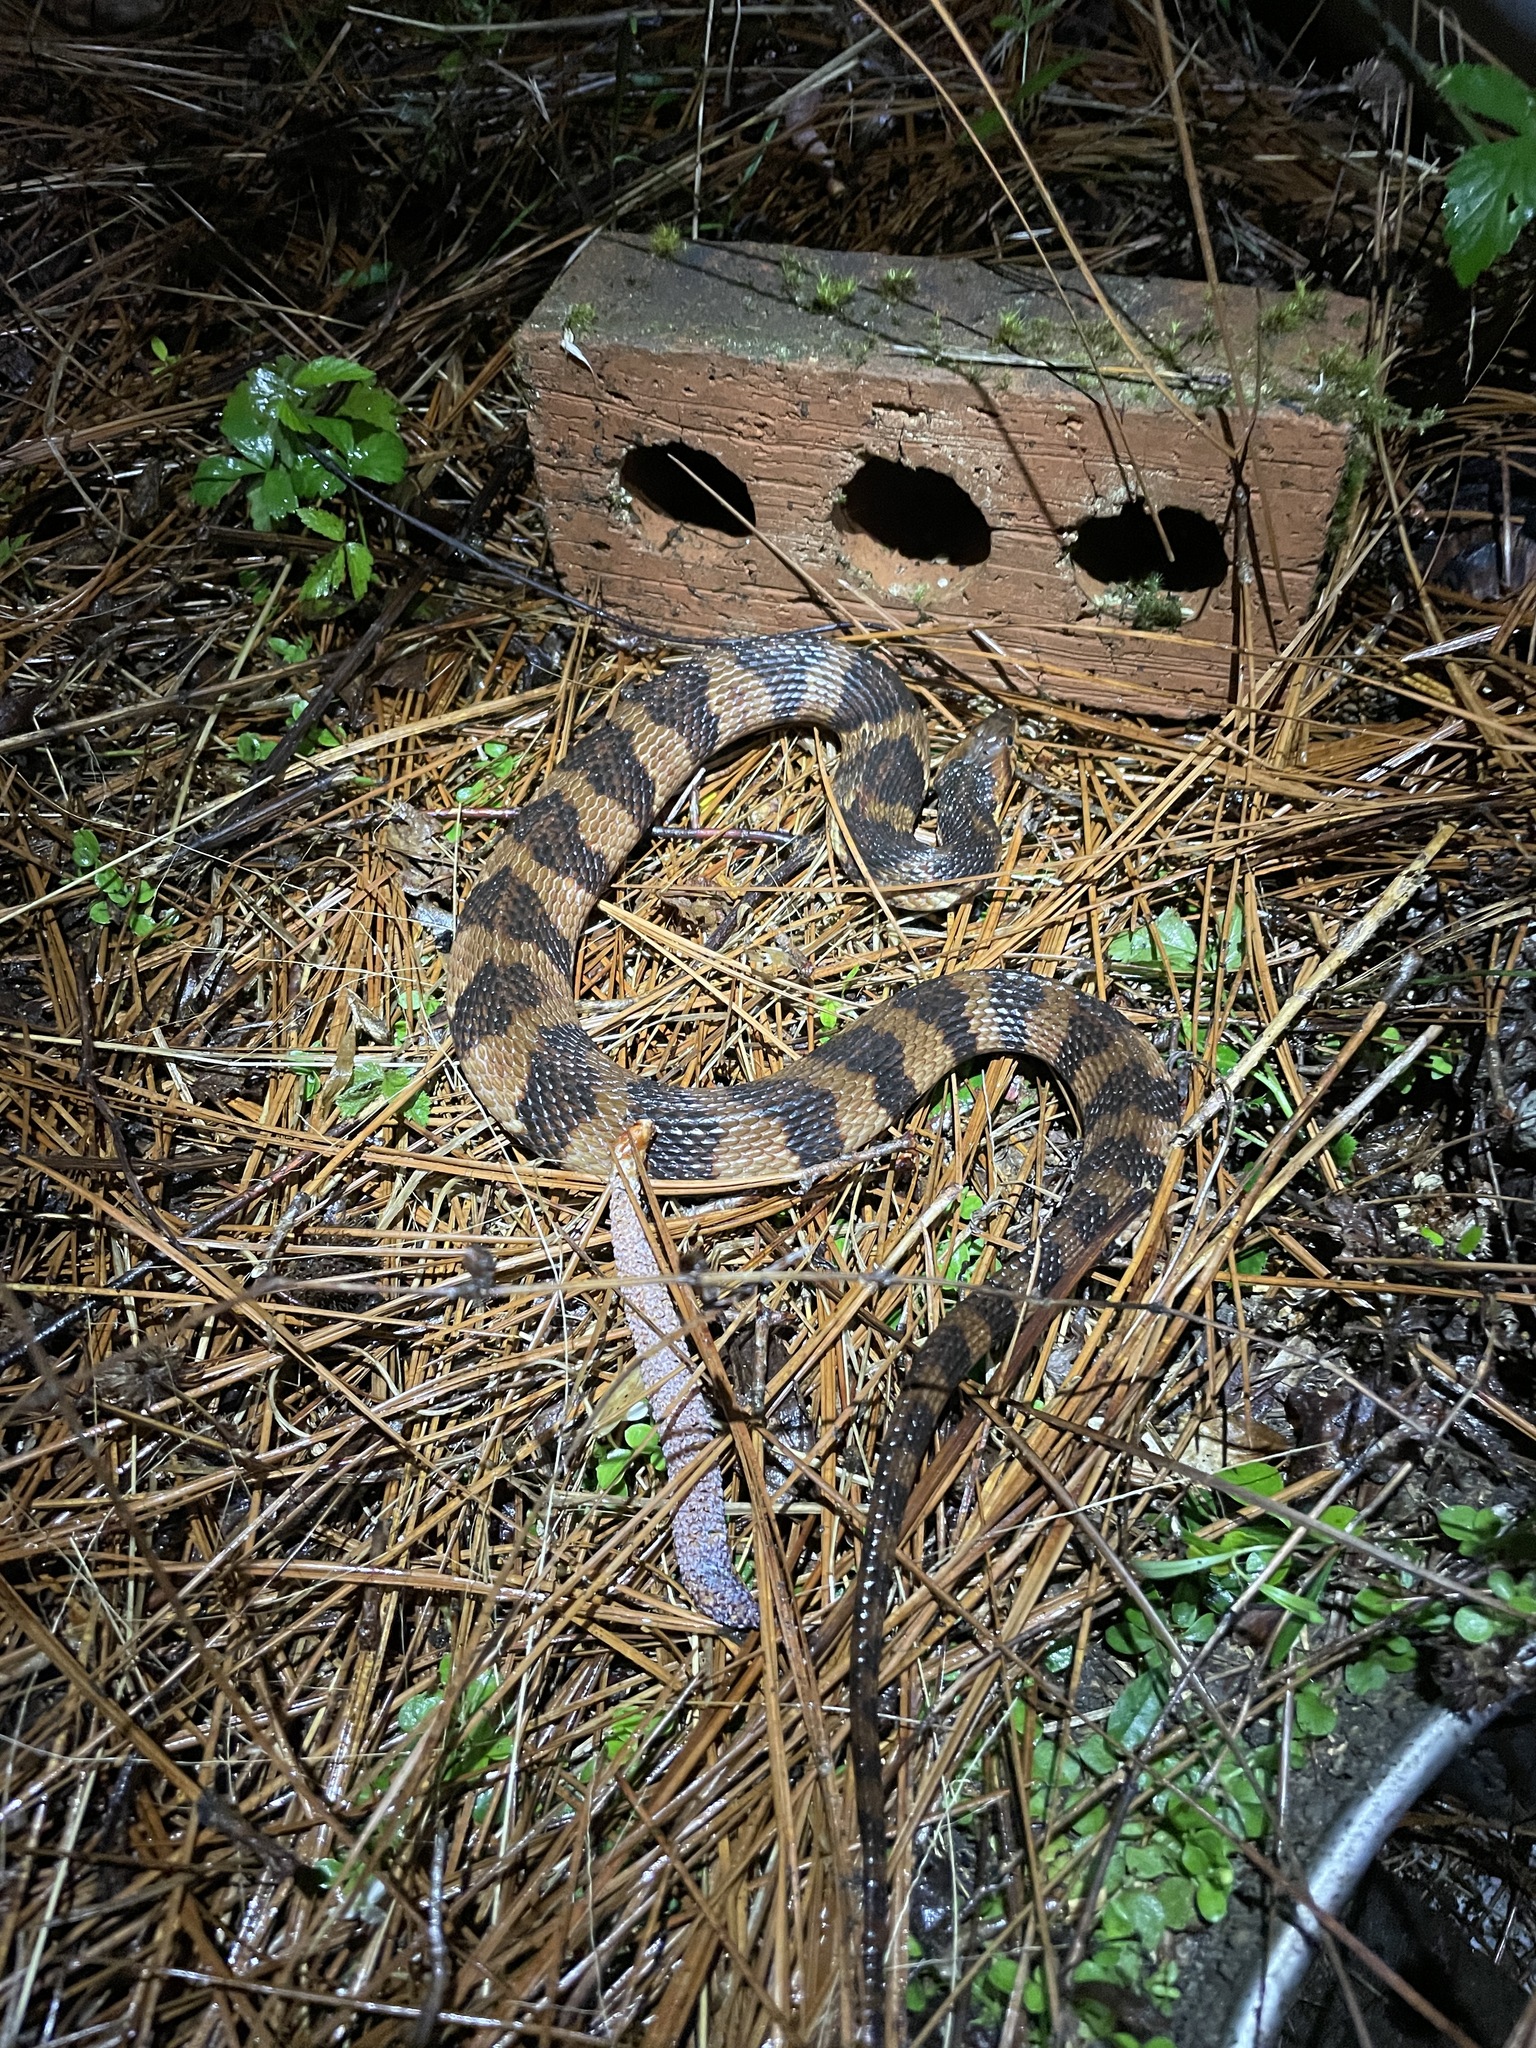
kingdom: Animalia
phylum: Chordata
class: Squamata
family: Colubridae
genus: Nerodia
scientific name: Nerodia fasciata
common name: Southern water snake
